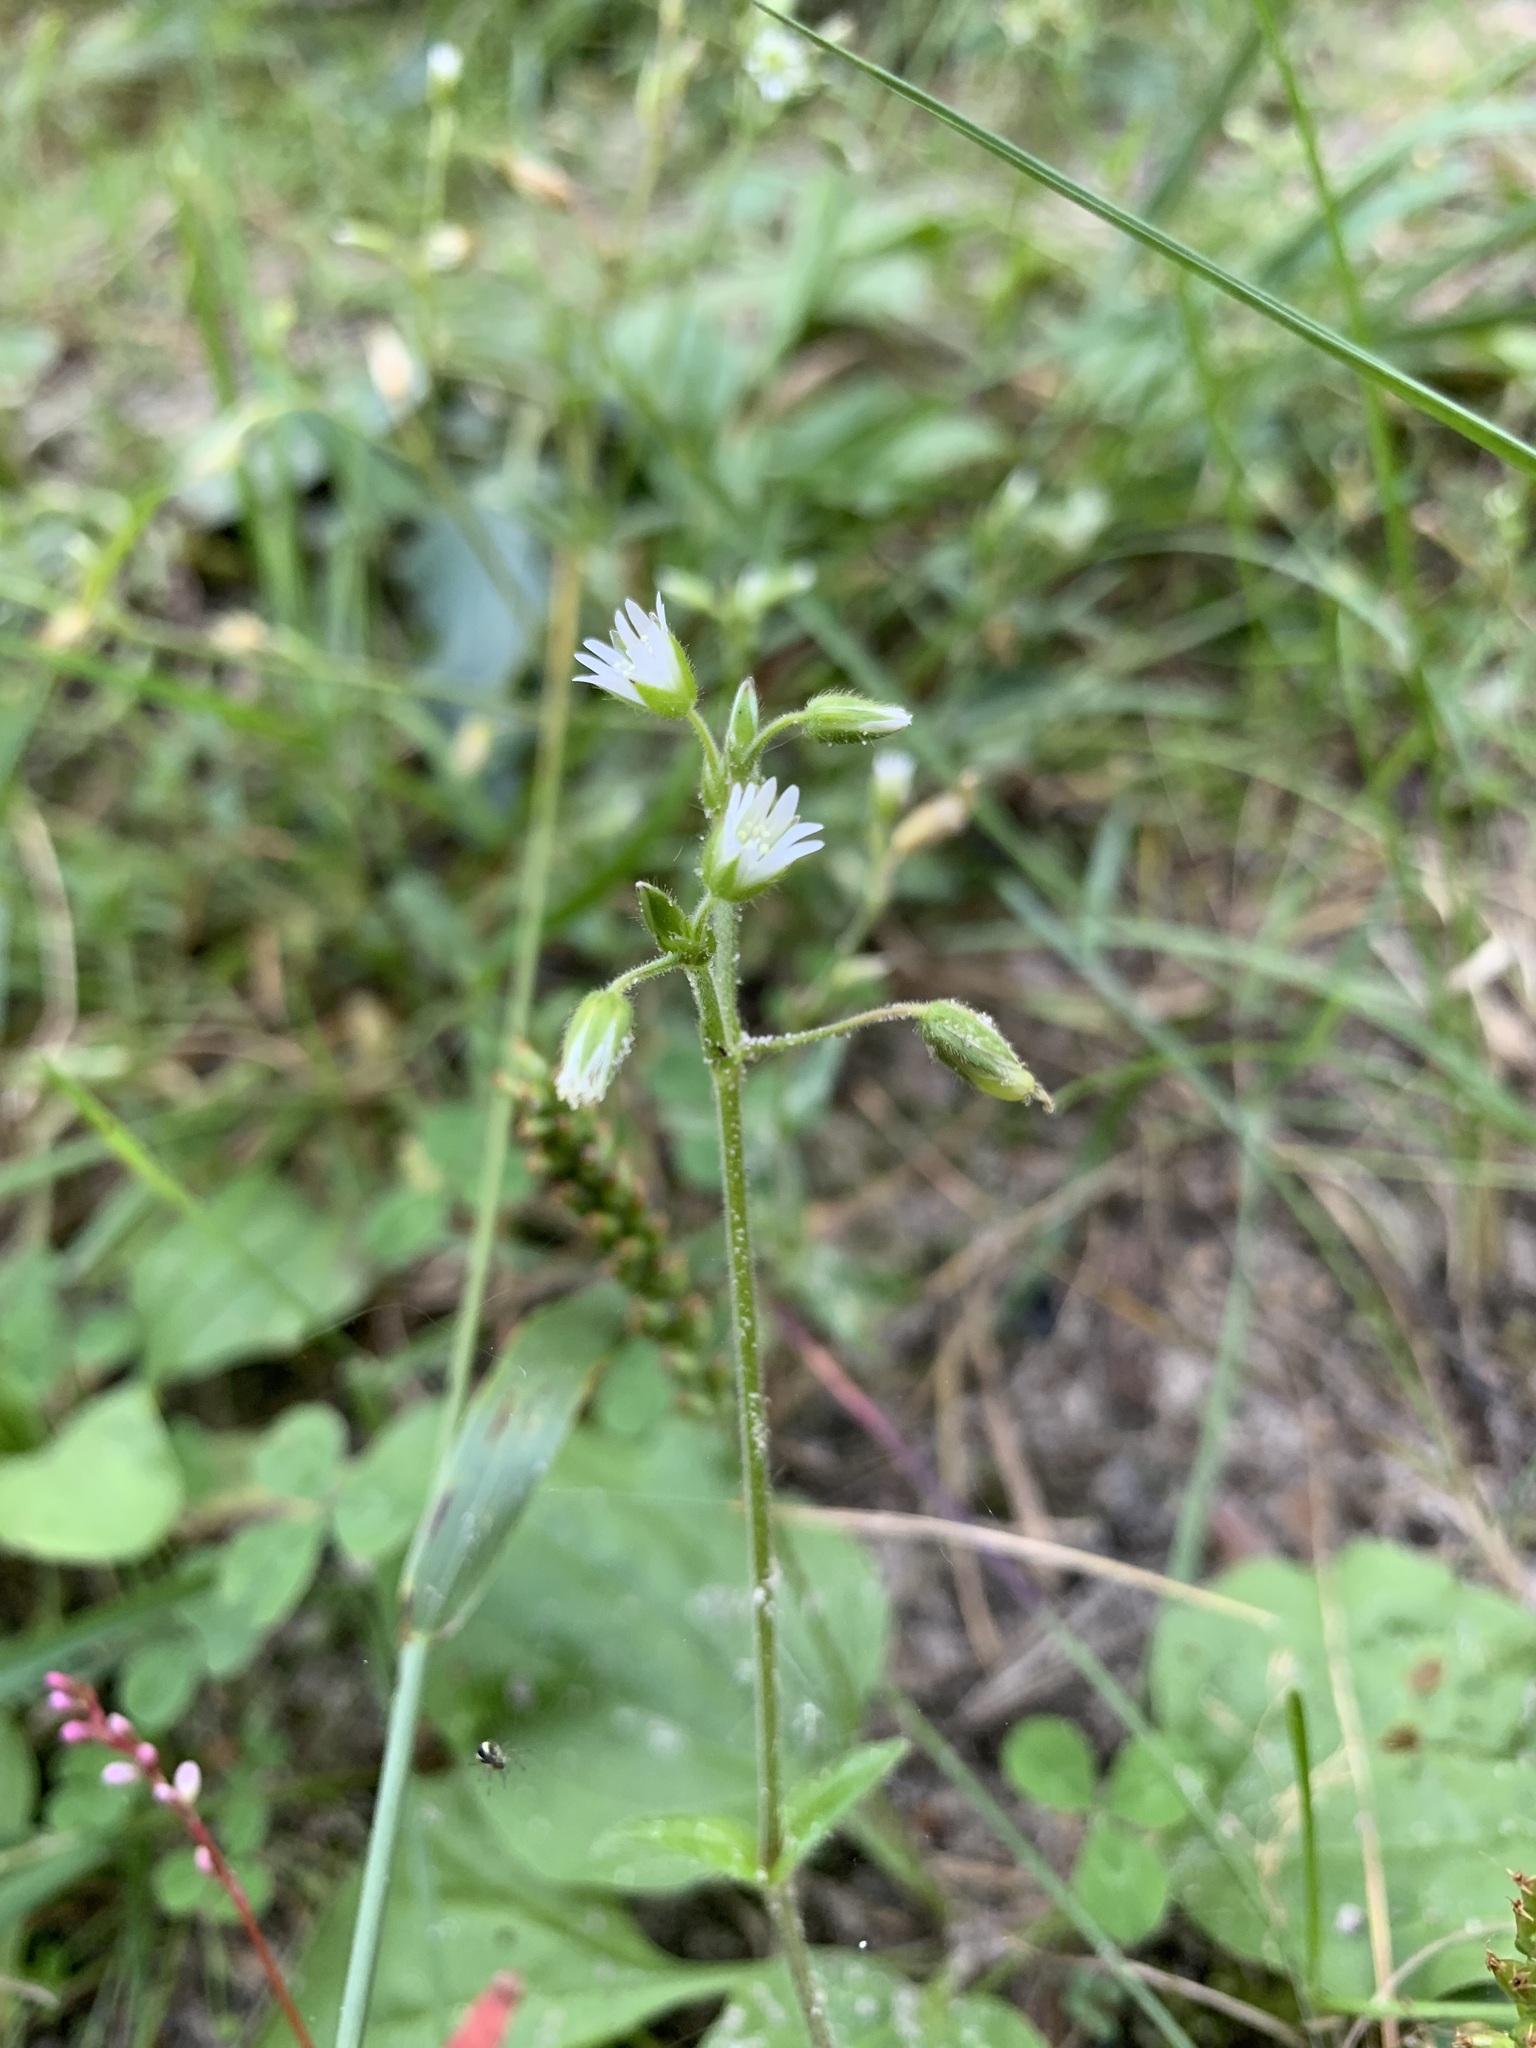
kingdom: Plantae
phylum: Tracheophyta
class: Magnoliopsida
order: Caryophyllales
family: Caryophyllaceae
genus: Cerastium
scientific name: Cerastium holosteoides
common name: Big chickweed
